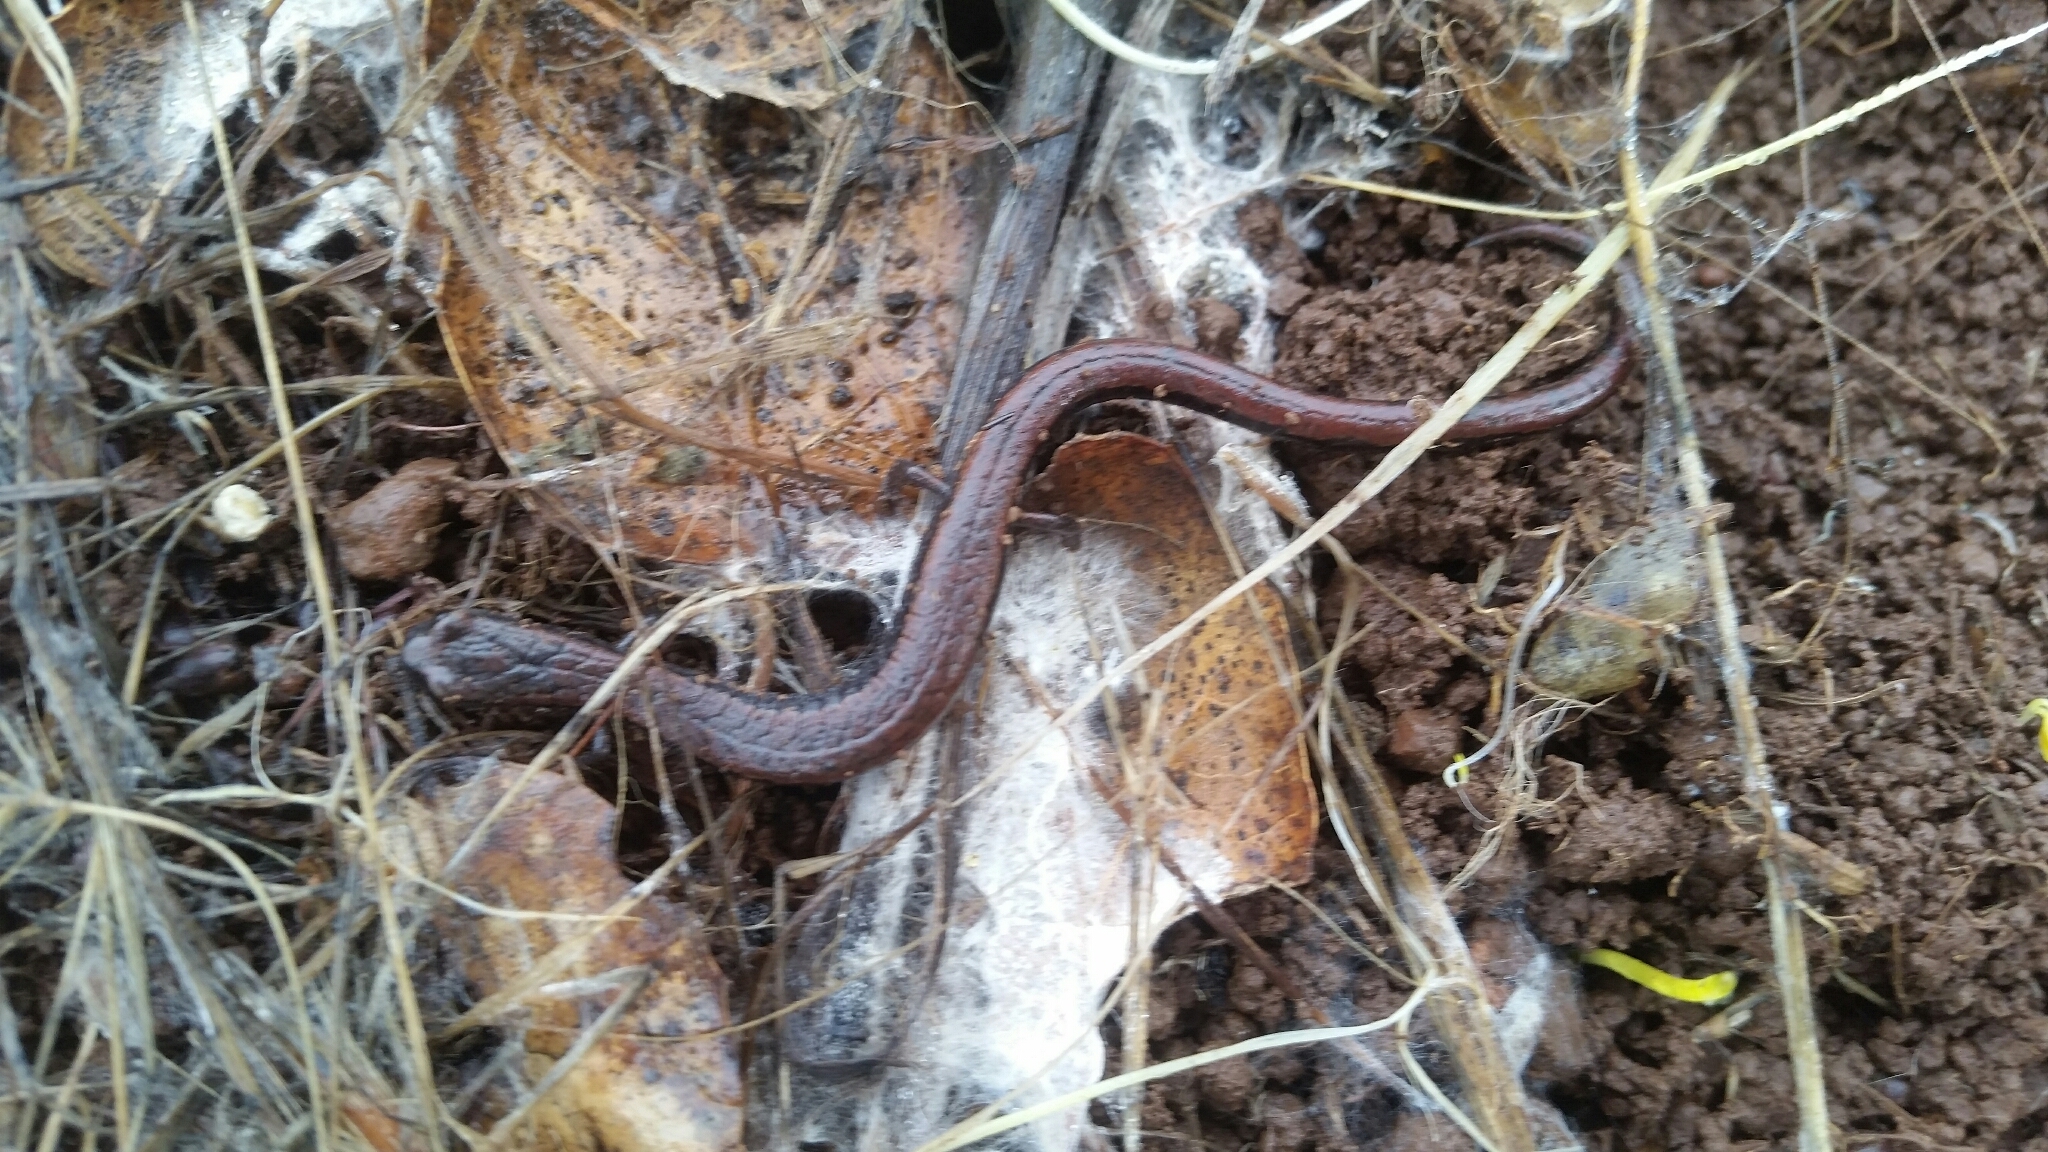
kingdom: Animalia
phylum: Chordata
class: Amphibia
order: Caudata
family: Plethodontidae
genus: Batrachoseps
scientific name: Batrachoseps attenuatus
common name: California slender salamander
